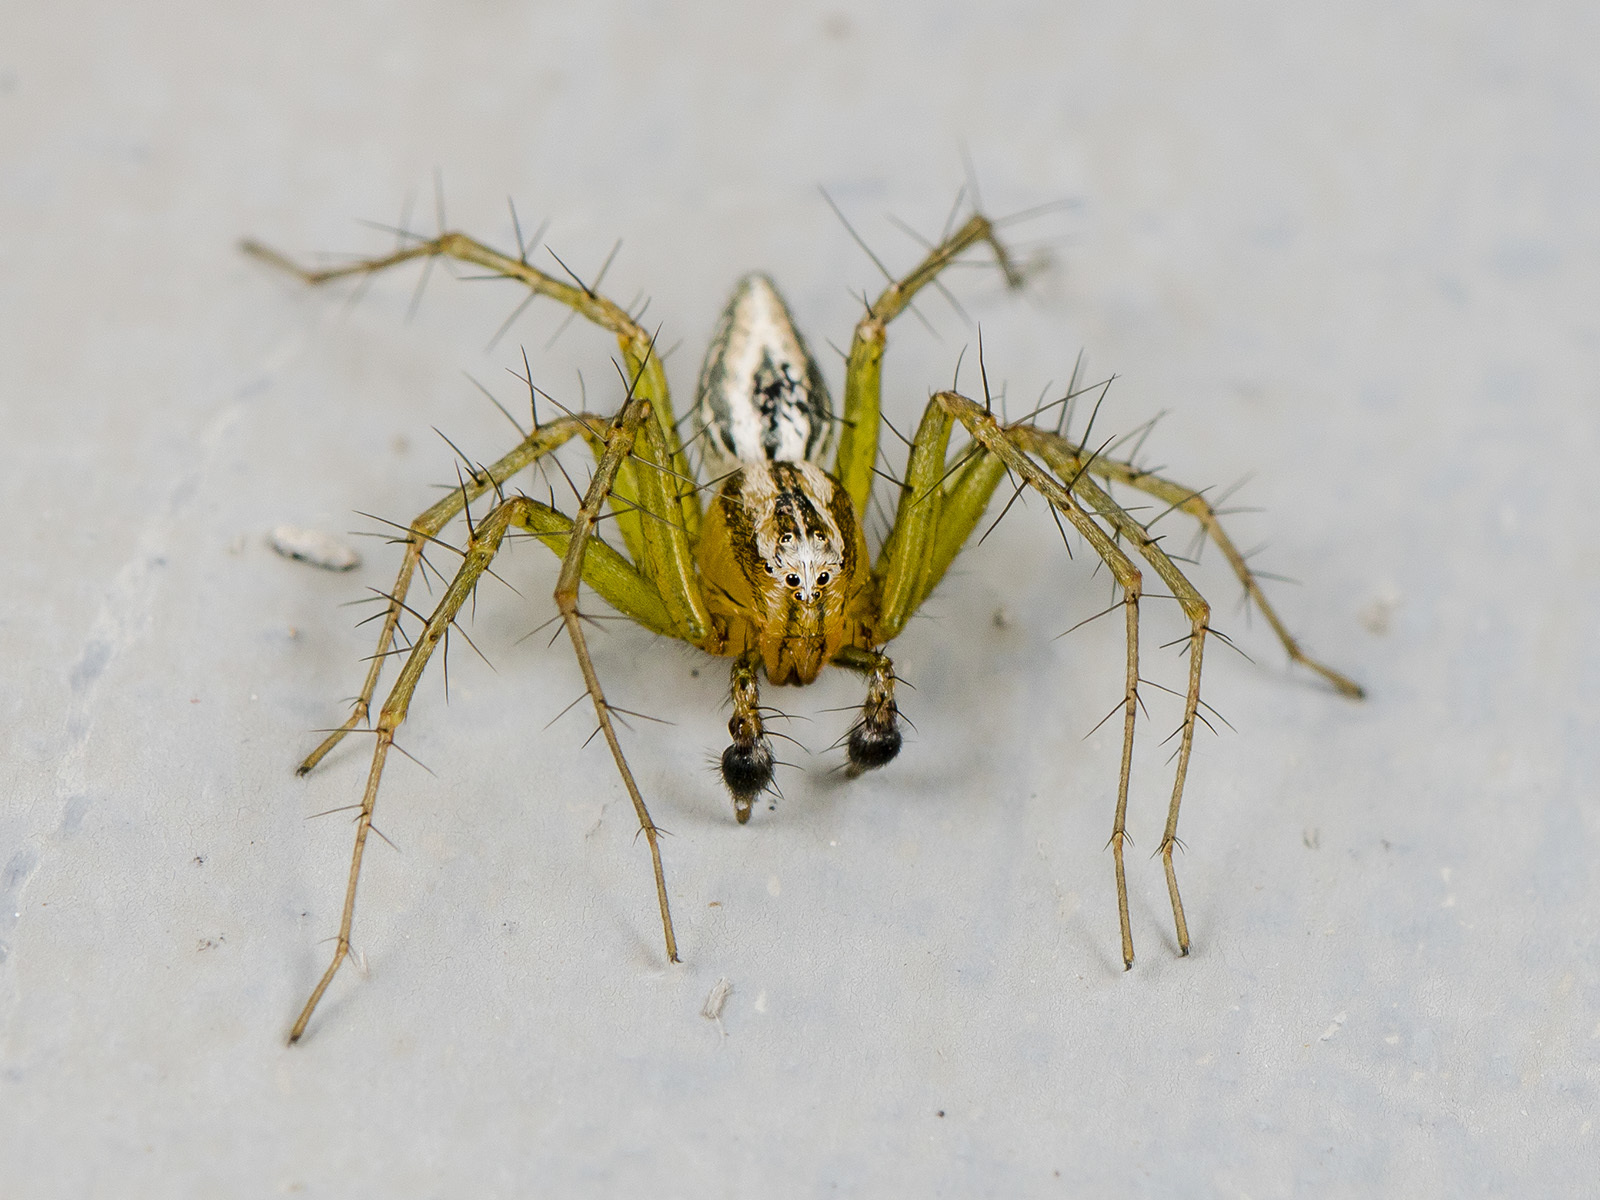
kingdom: Animalia
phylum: Arthropoda
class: Arachnida
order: Araneae
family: Oxyopidae
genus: Oxyopes
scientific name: Oxyopes lineatus
